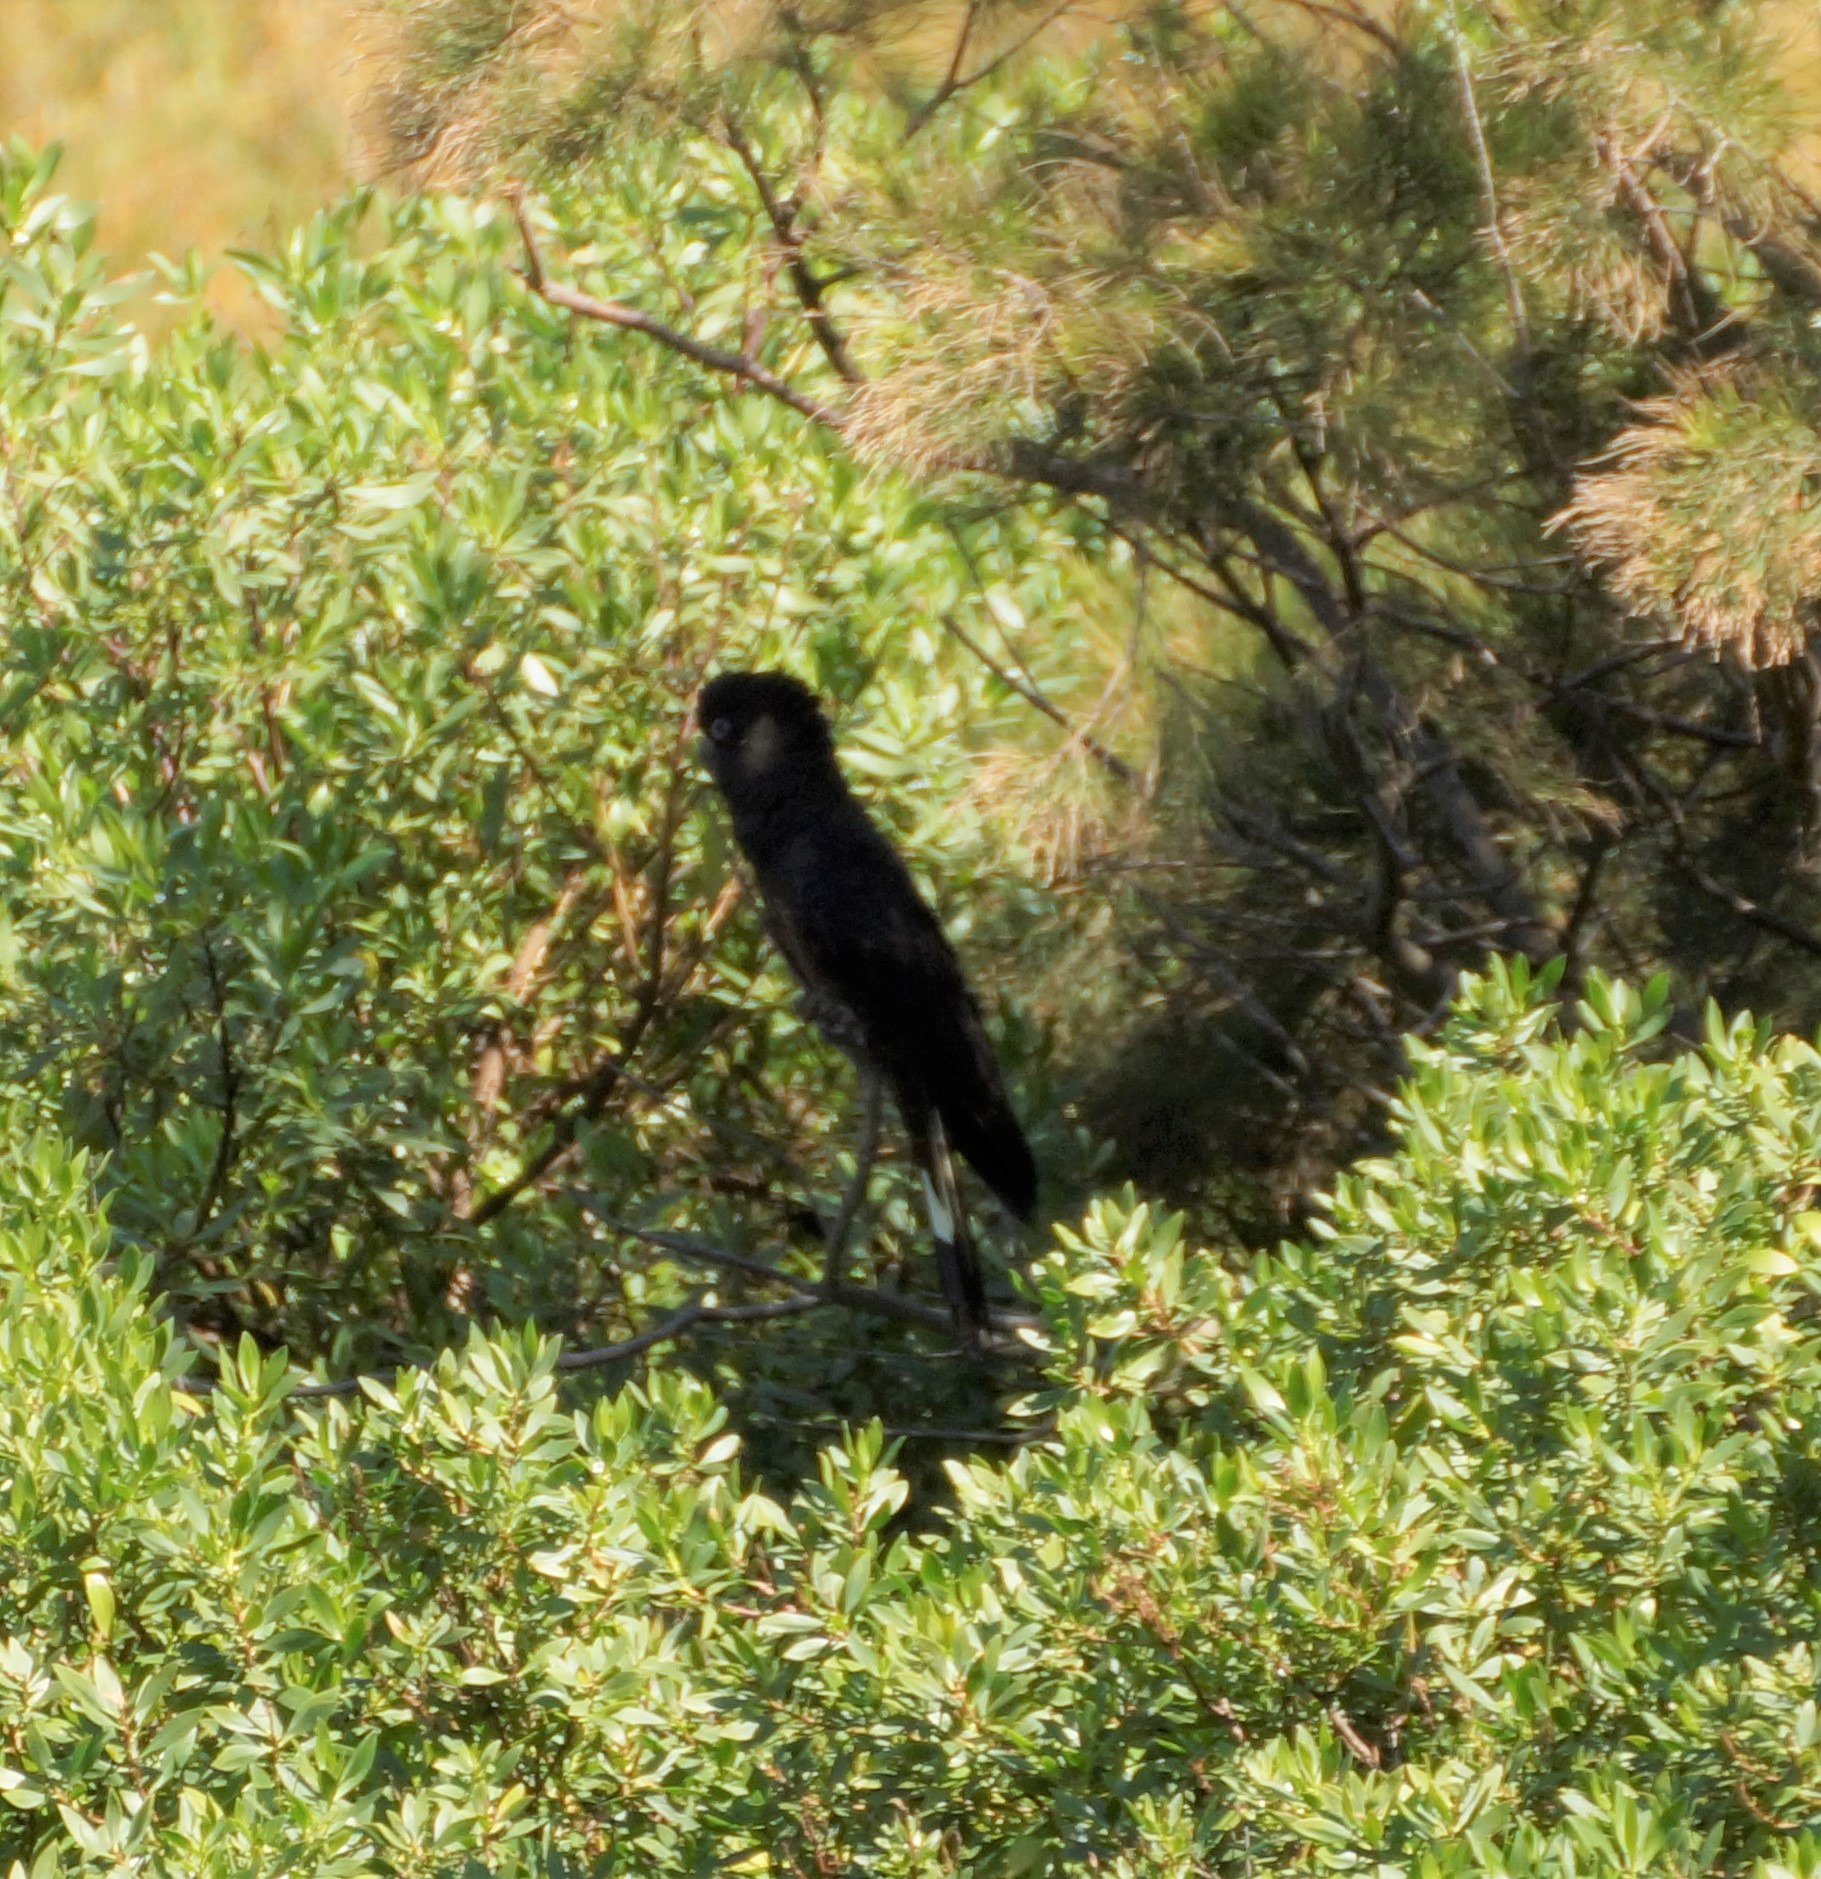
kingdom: Animalia
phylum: Chordata
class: Aves
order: Psittaciformes
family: Cacatuidae
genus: Zanda
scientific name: Zanda funerea
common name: Yellow-tailed black-cockatoo
